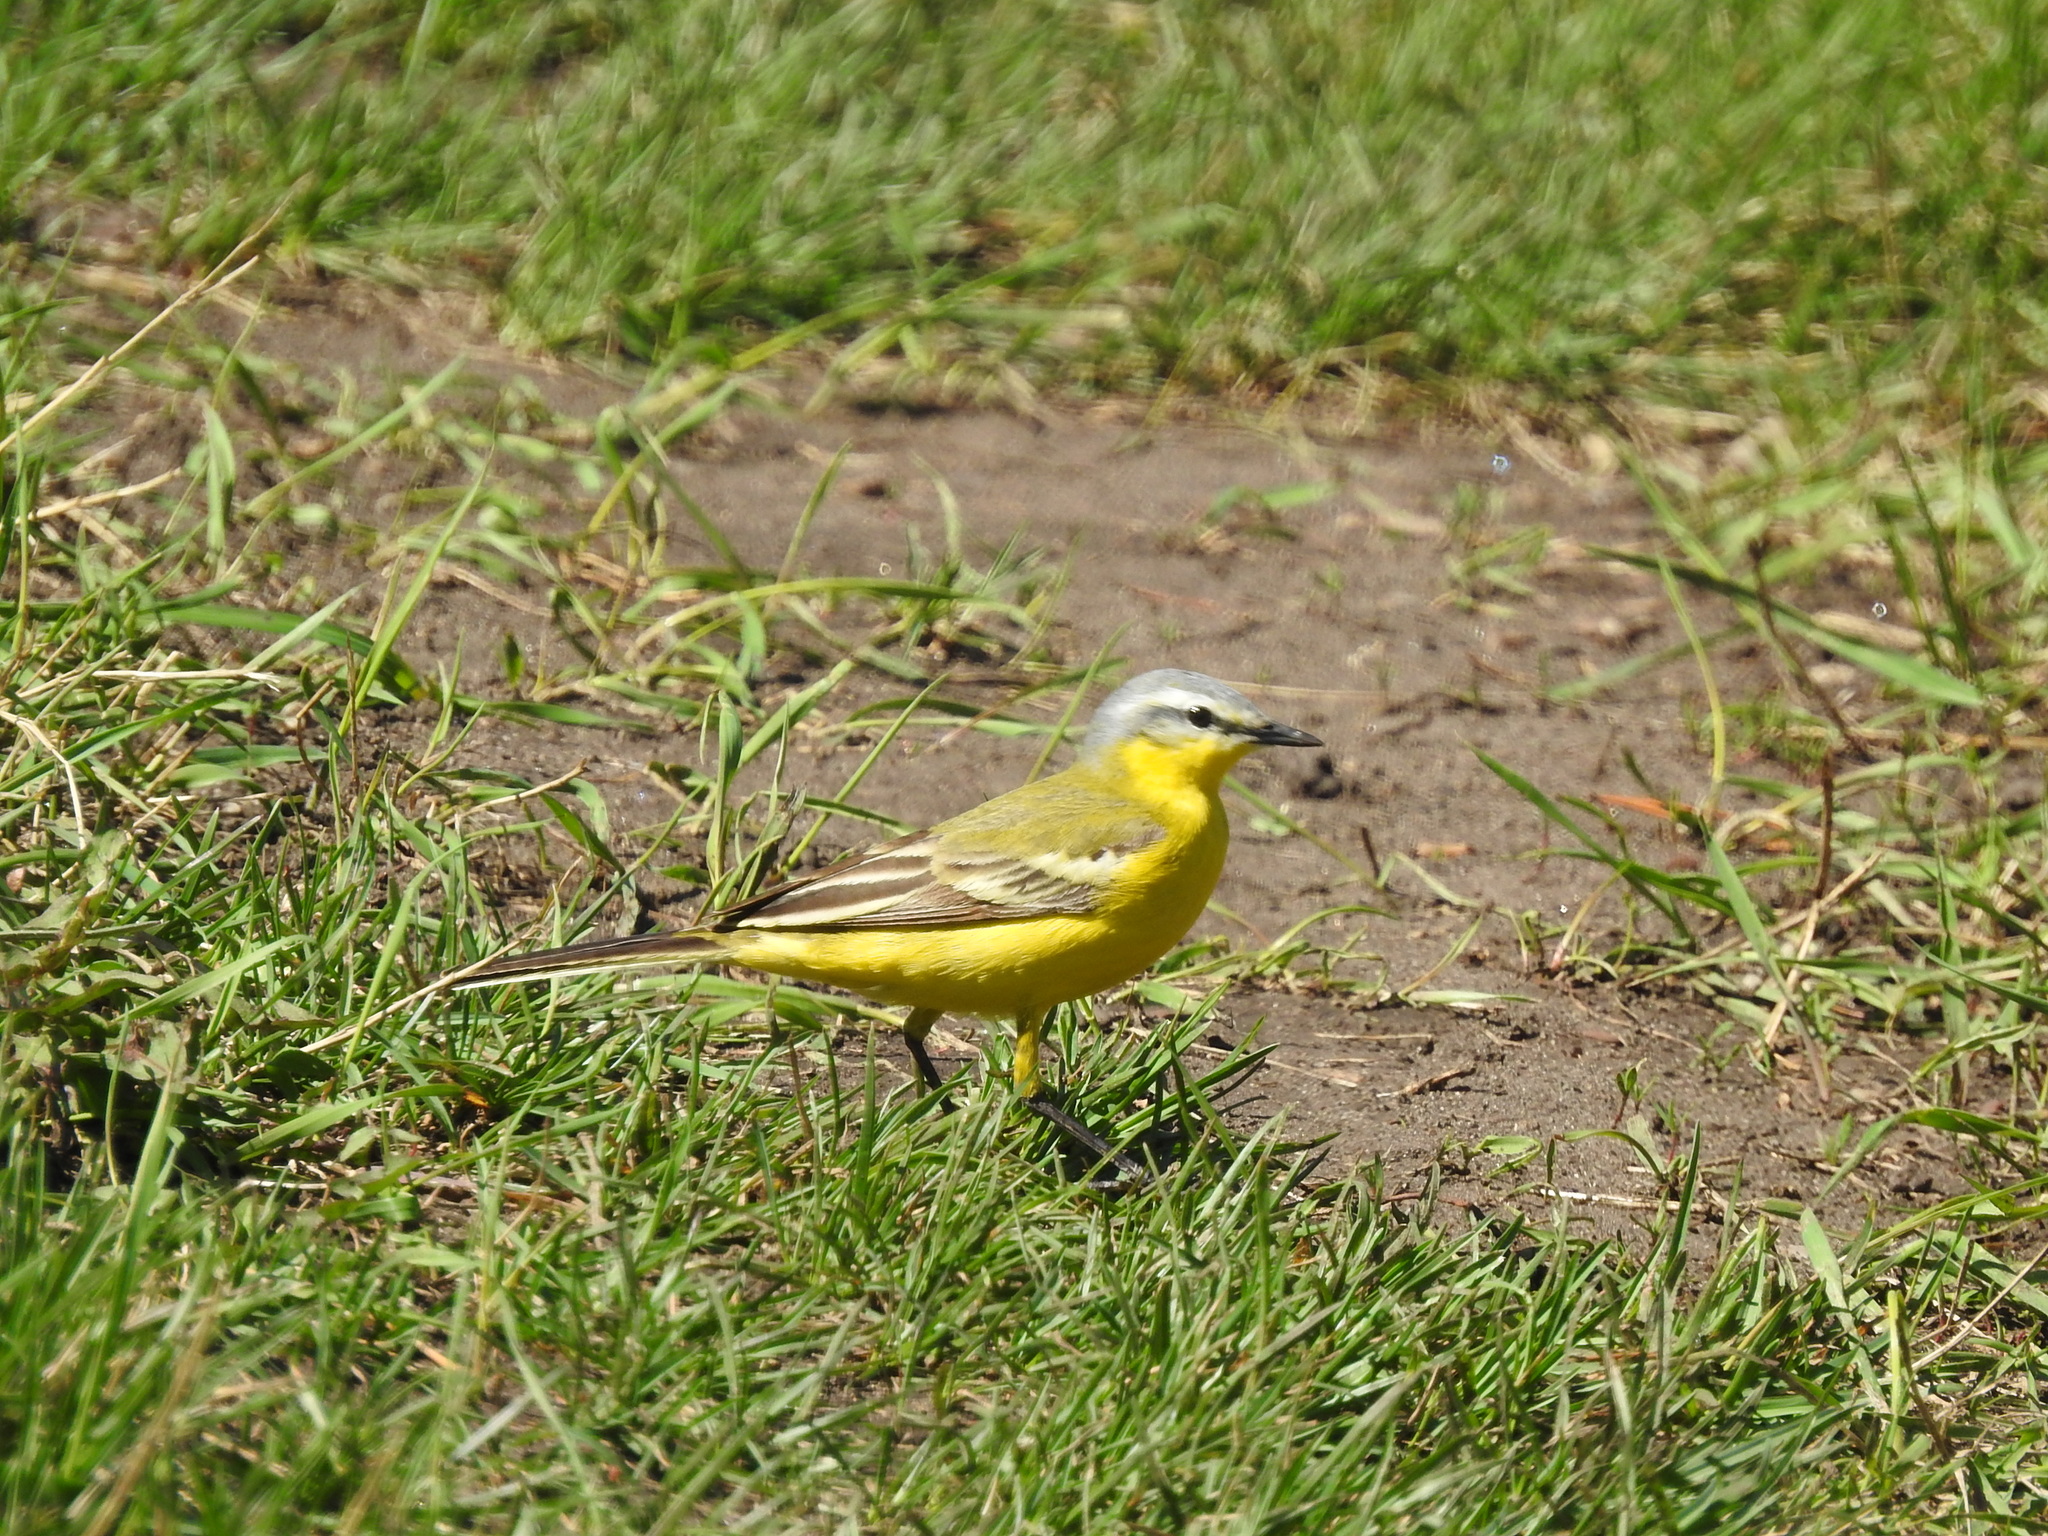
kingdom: Animalia
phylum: Chordata
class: Aves
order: Passeriformes
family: Motacillidae
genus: Motacilla
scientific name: Motacilla flava
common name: Western yellow wagtail
